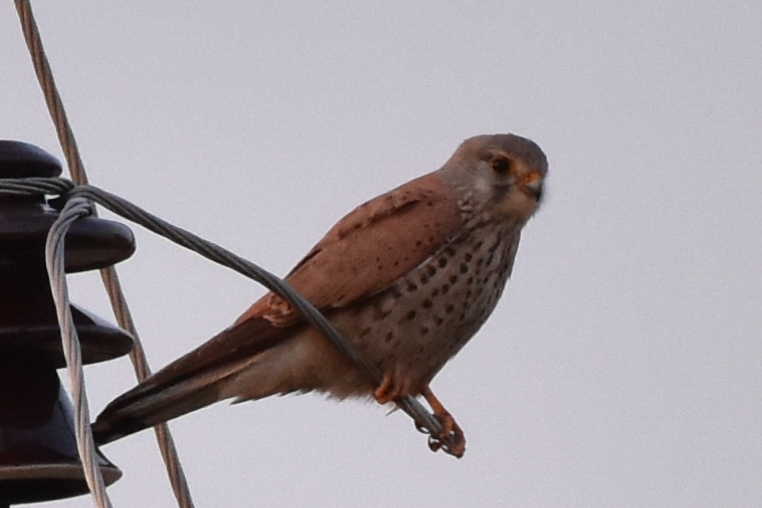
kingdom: Animalia
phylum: Chordata
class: Aves
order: Falconiformes
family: Falconidae
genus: Falco
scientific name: Falco tinnunculus
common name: Common kestrel
